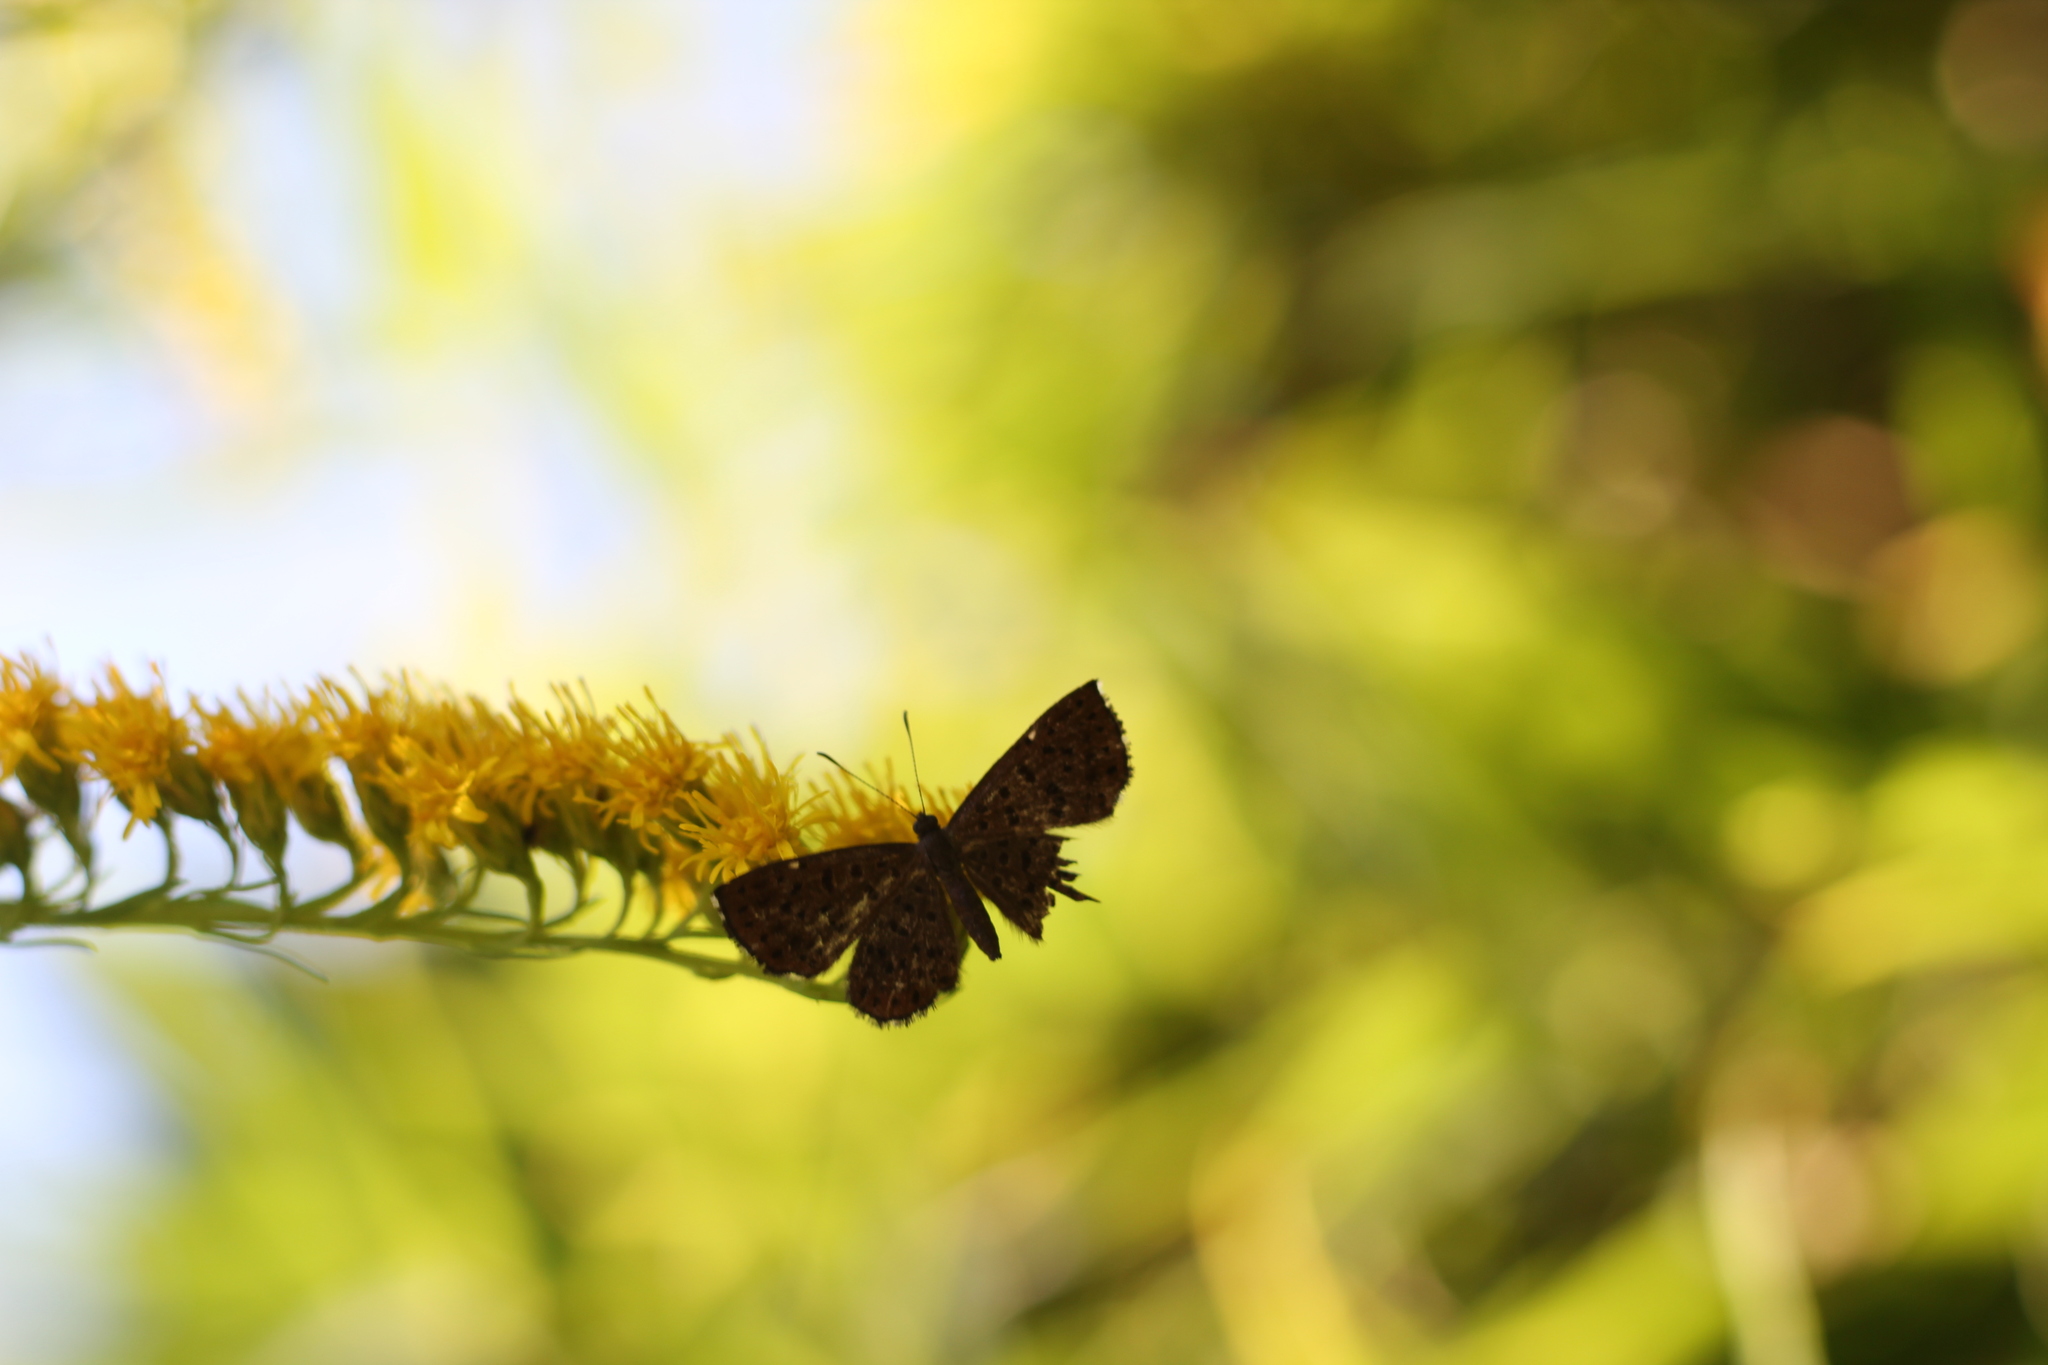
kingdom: Animalia
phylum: Arthropoda
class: Insecta
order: Lepidoptera
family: Riodinidae
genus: Teenie
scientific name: Teenie tinea
